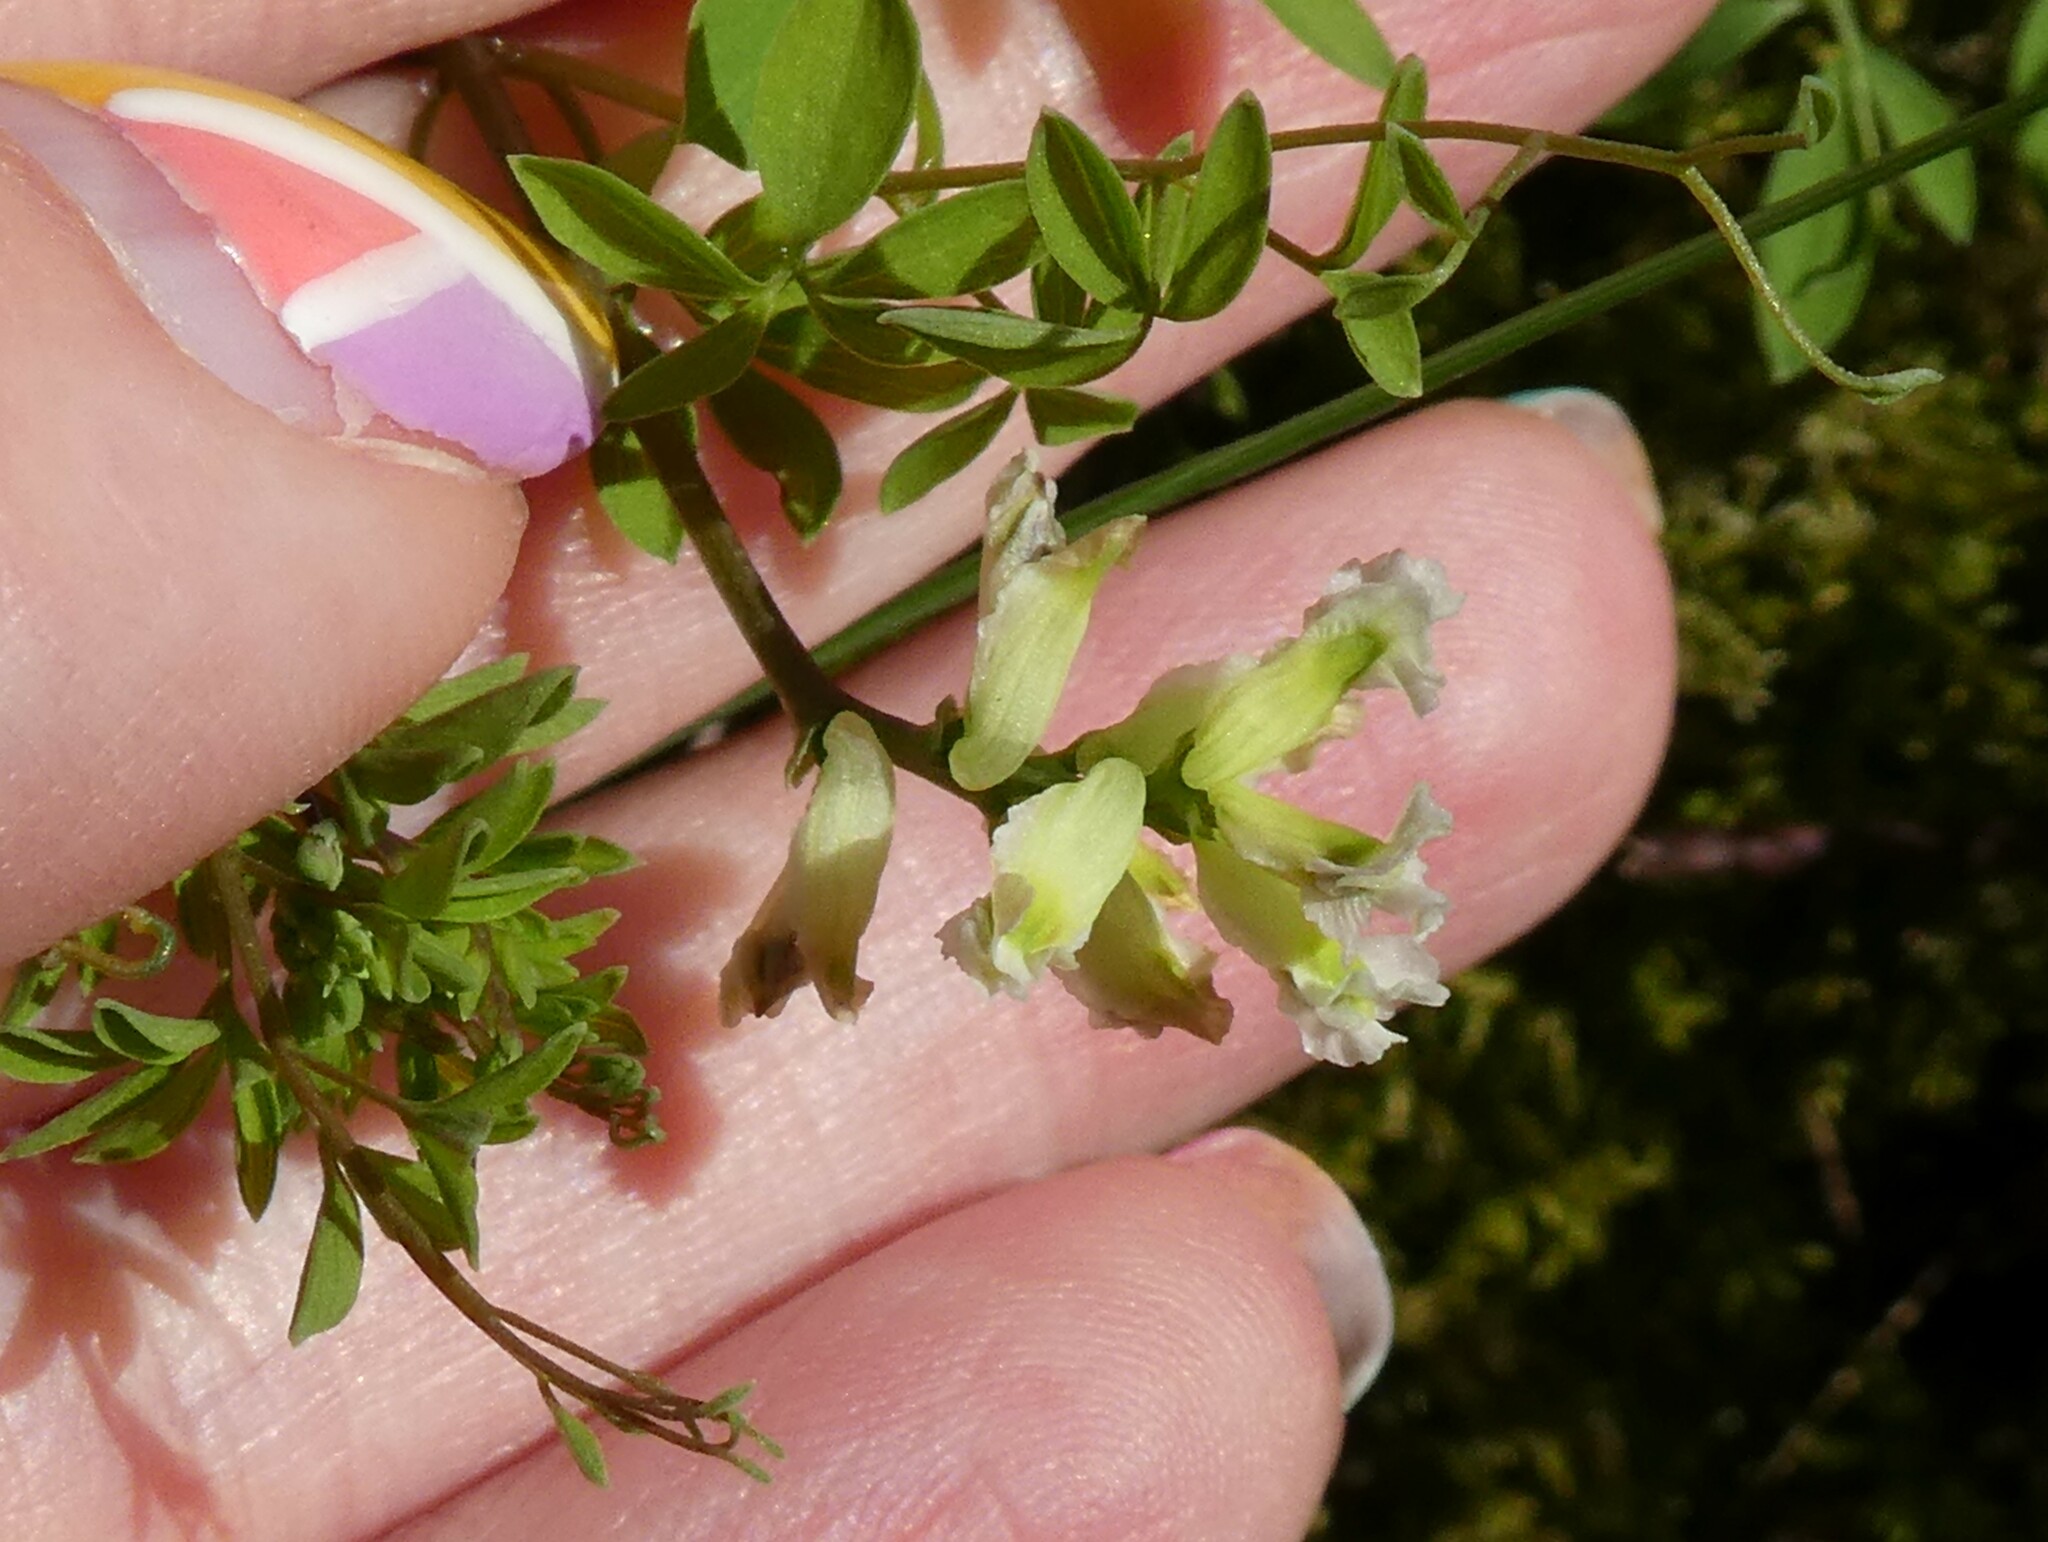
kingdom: Plantae
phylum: Tracheophyta
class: Magnoliopsida
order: Ranunculales
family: Papaveraceae
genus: Ceratocapnos
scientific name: Ceratocapnos claviculata
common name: Climbing corydalis
